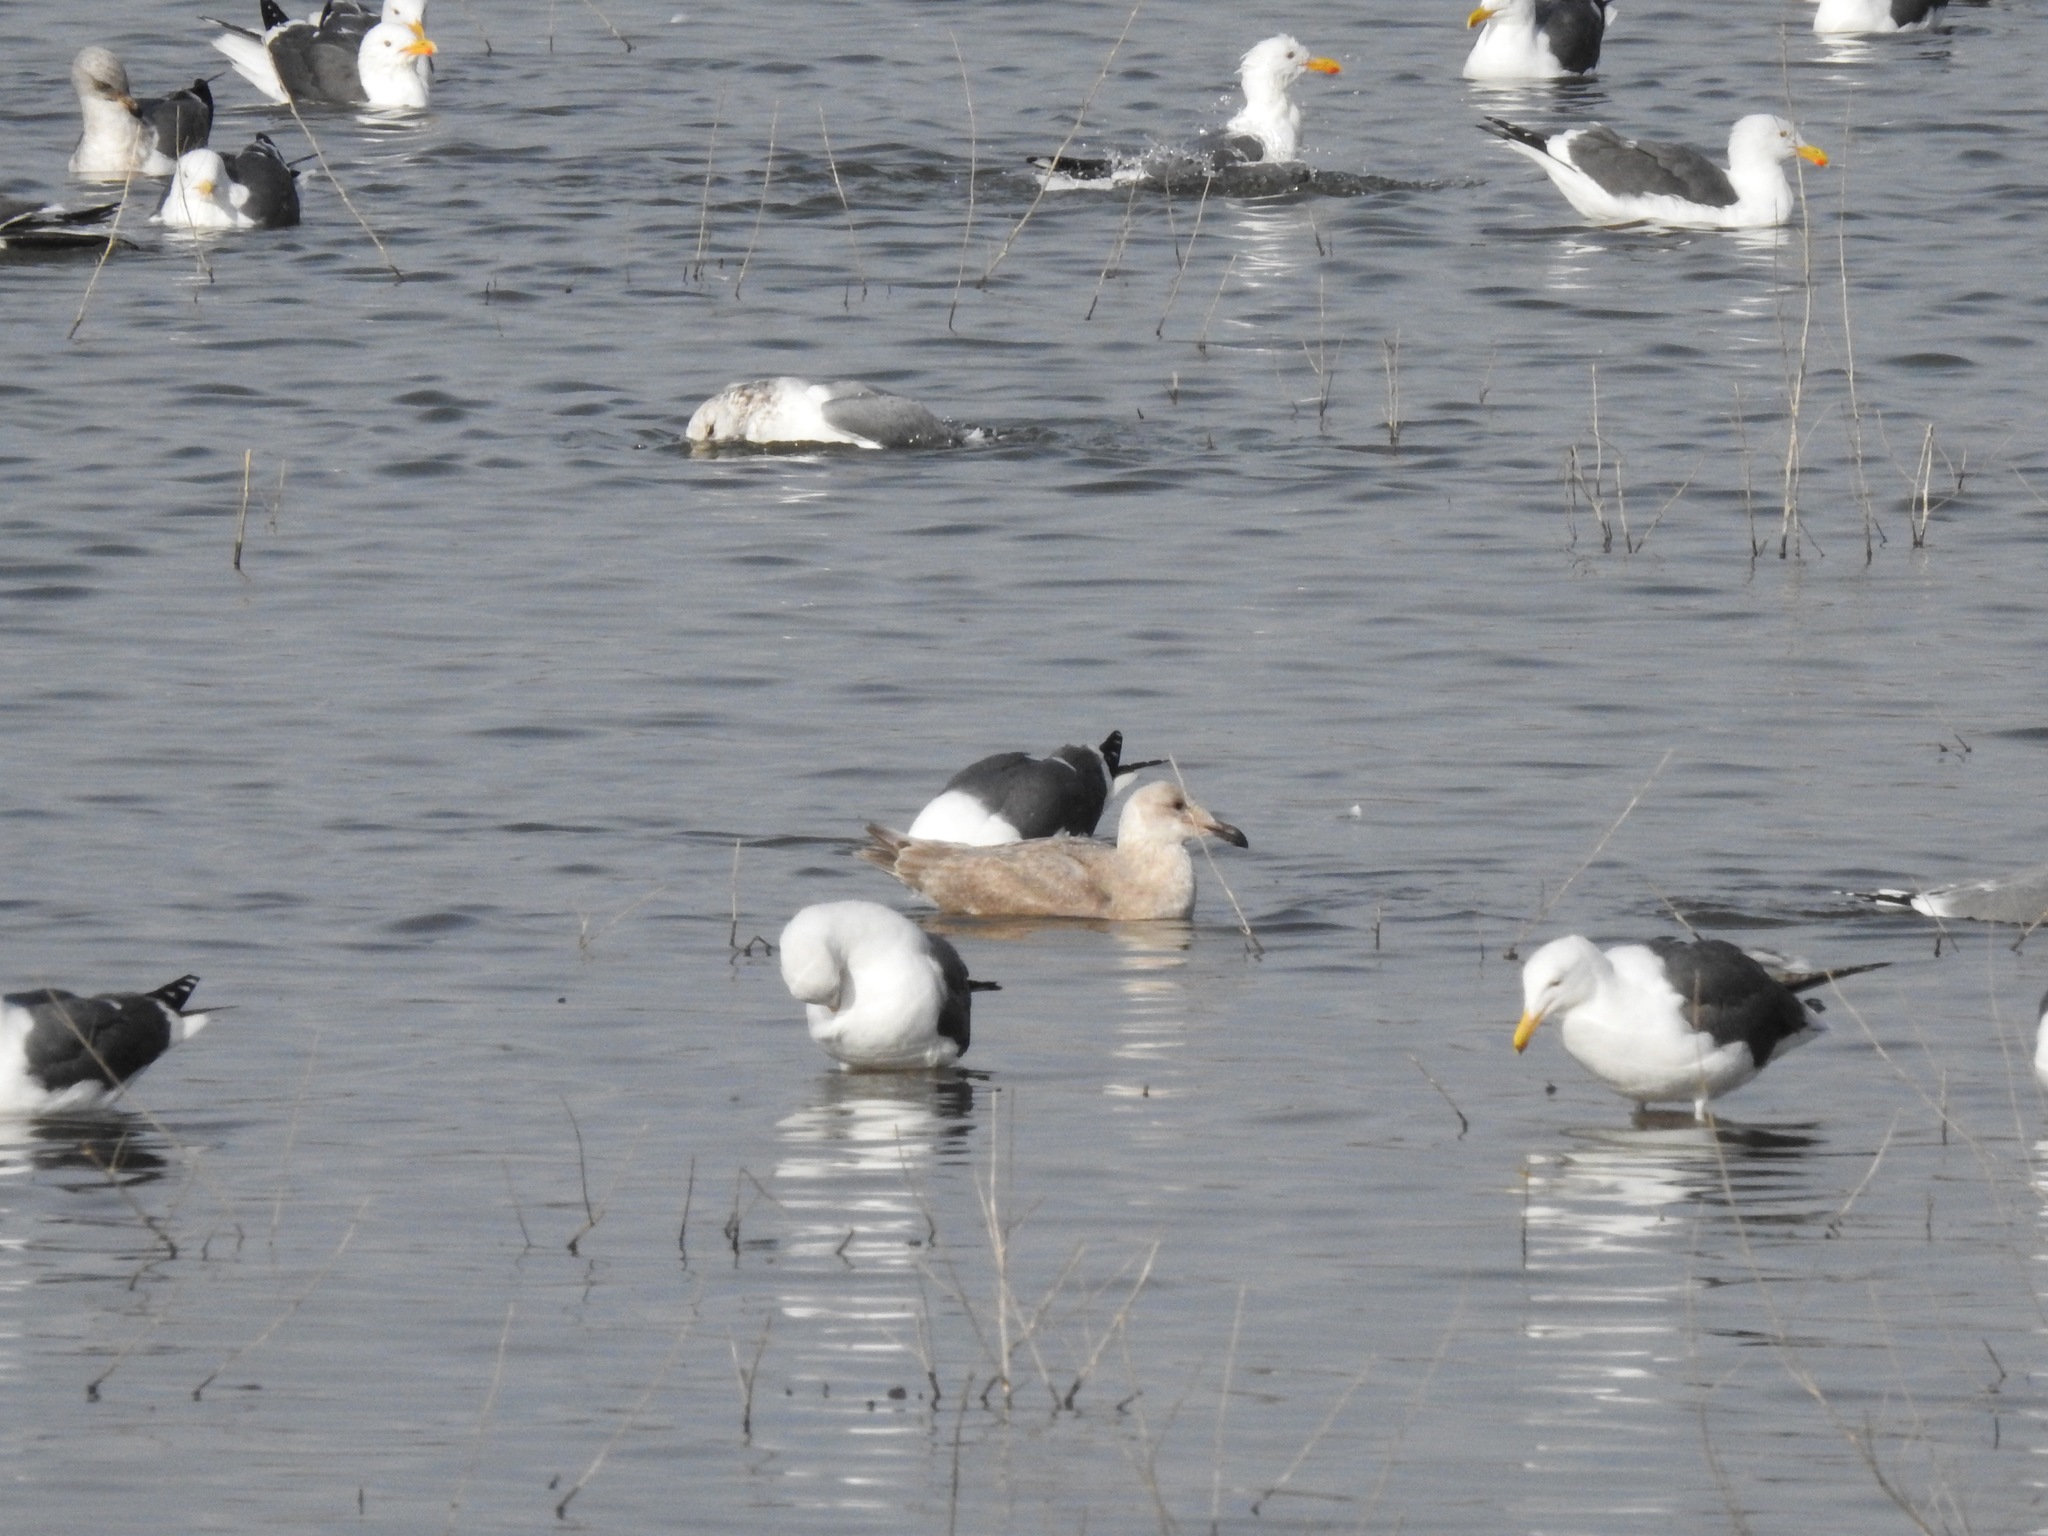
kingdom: Animalia
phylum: Chordata
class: Aves
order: Charadriiformes
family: Laridae
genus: Larus
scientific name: Larus glaucescens
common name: Glaucous-winged gull
